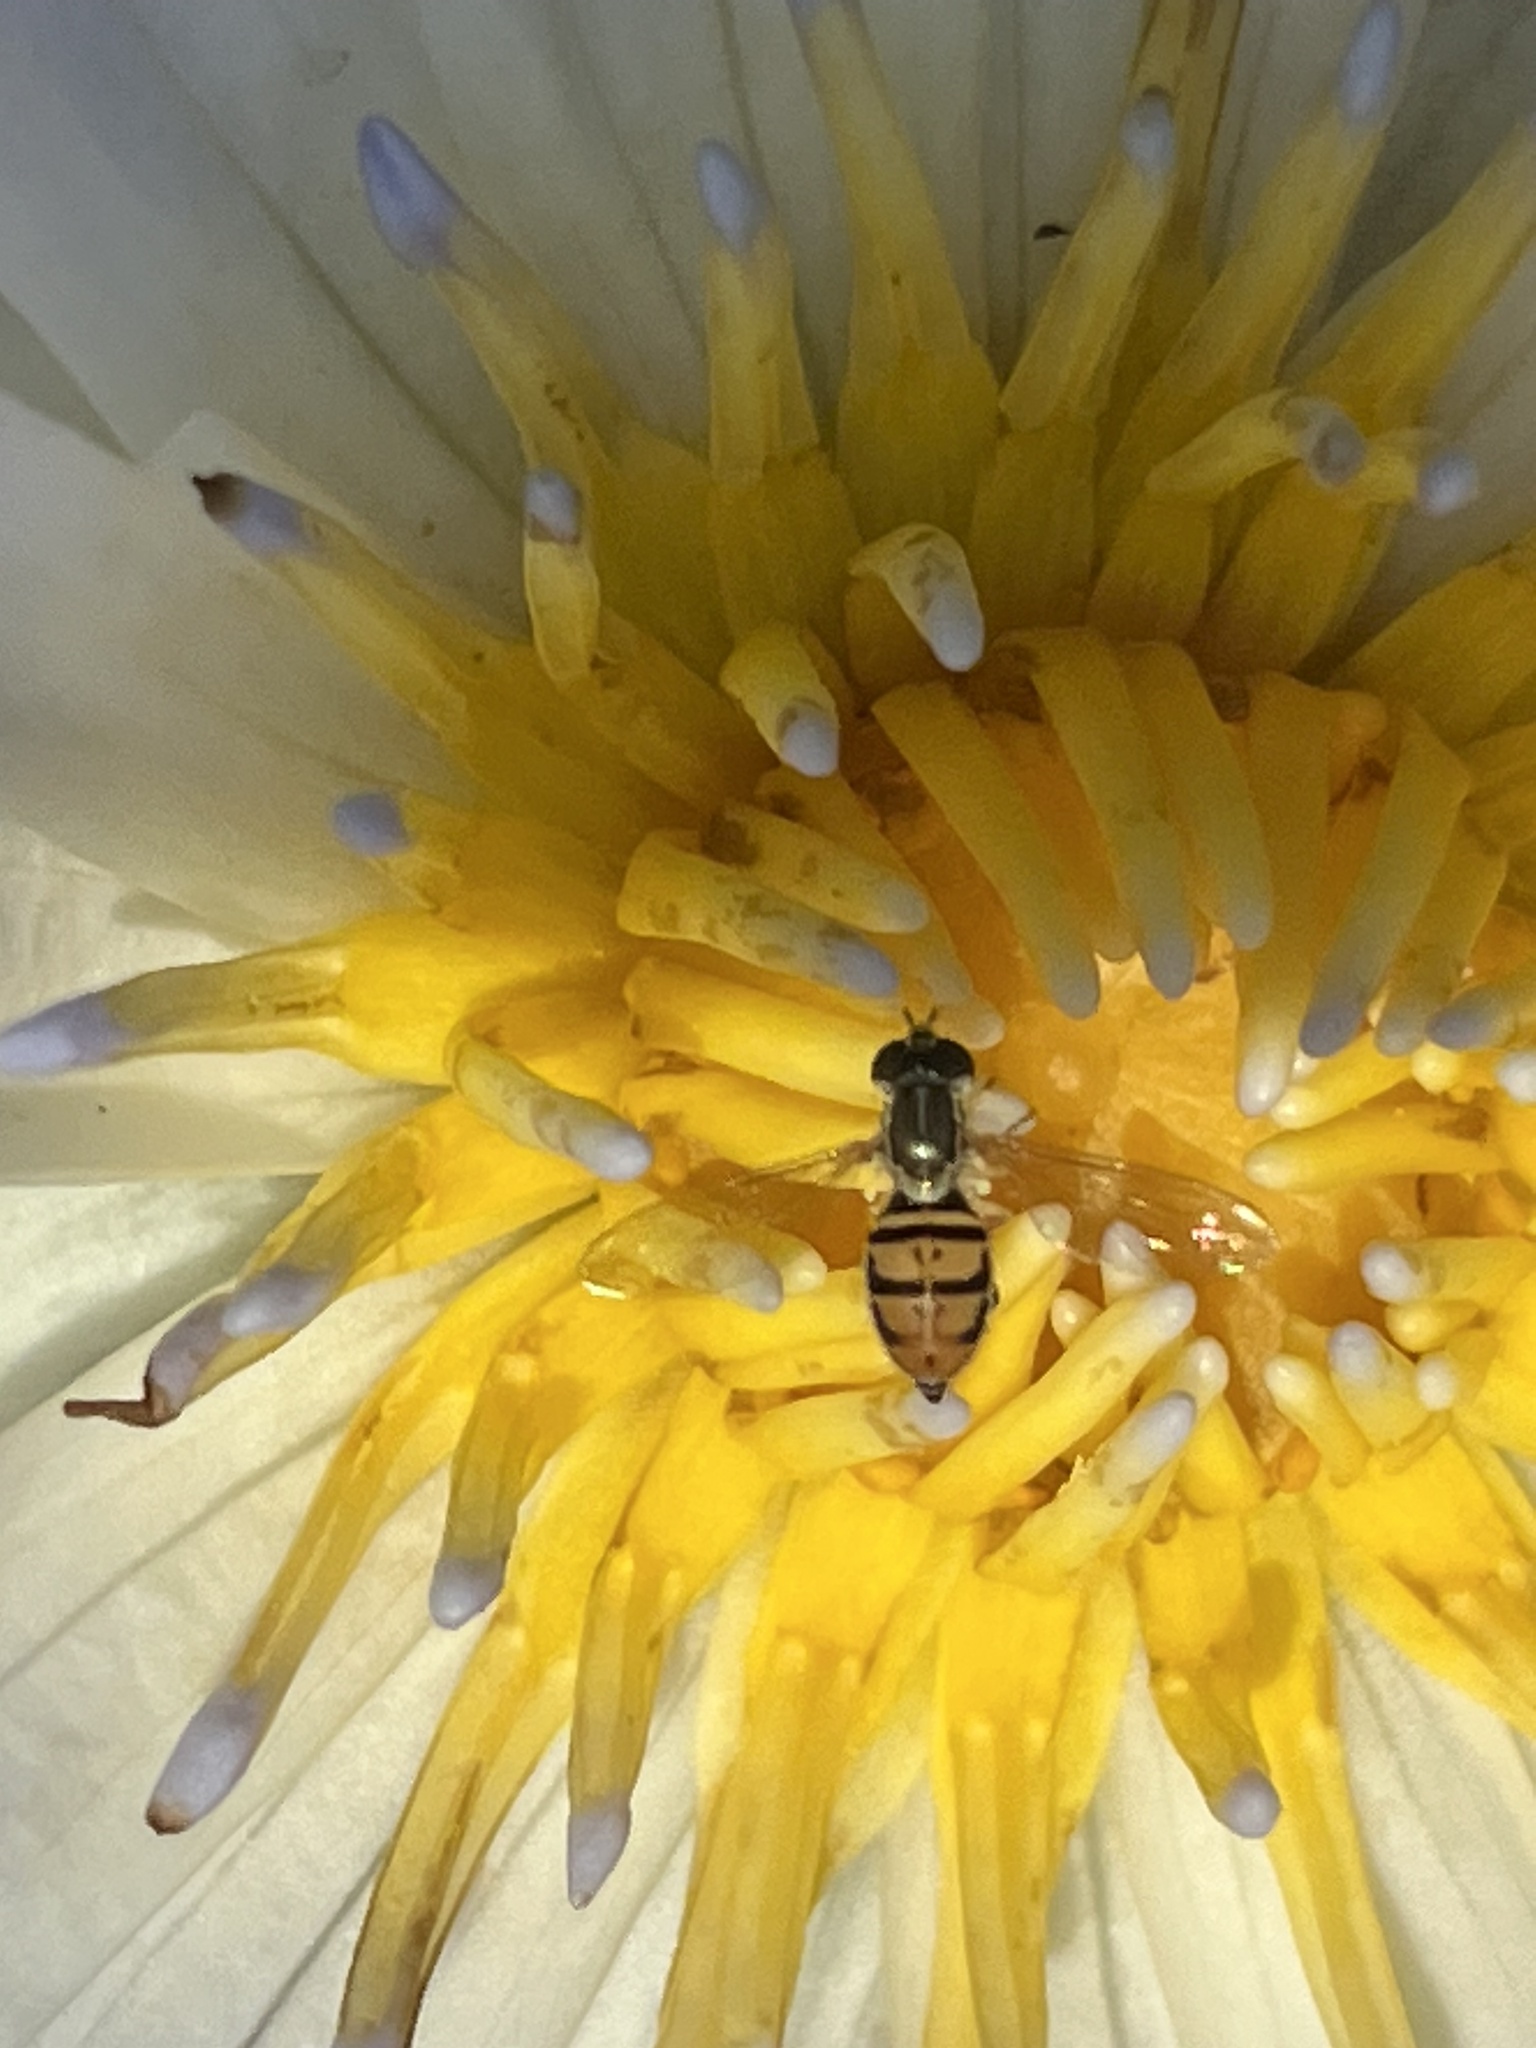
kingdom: Animalia
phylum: Arthropoda
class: Insecta
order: Diptera
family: Syrphidae
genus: Toxomerus
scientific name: Toxomerus marginatus
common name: Syrphid fly
